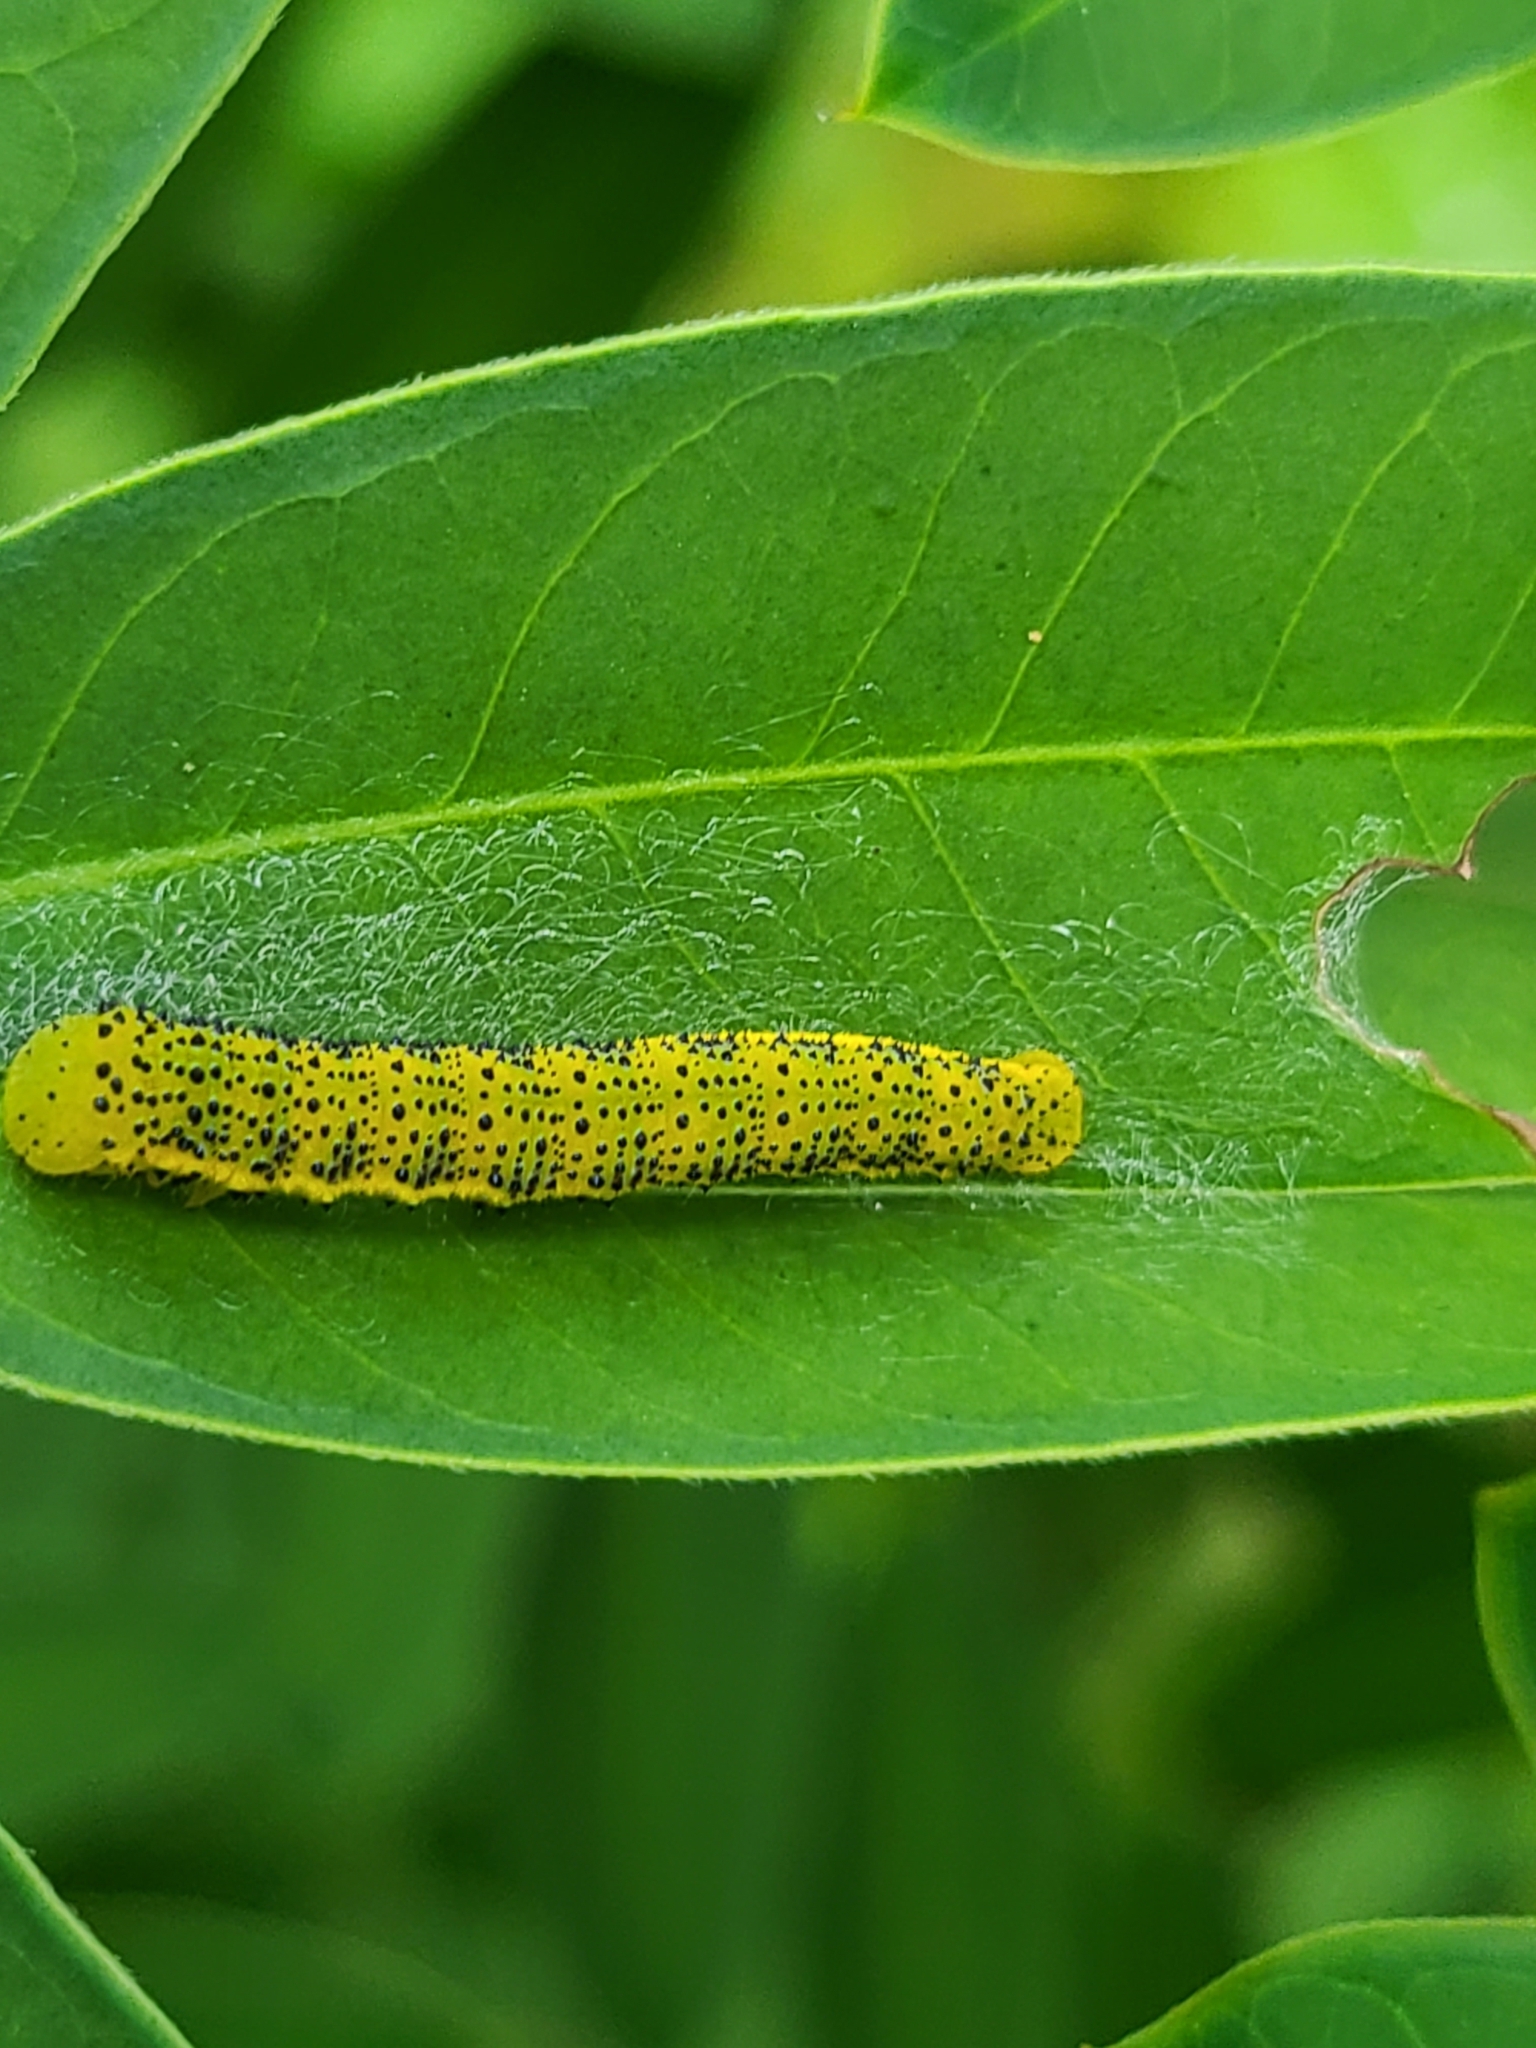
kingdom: Animalia
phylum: Arthropoda
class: Insecta
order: Lepidoptera
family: Pieridae
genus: Phoebis
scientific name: Phoebis sennae
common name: Cloudless sulphur
